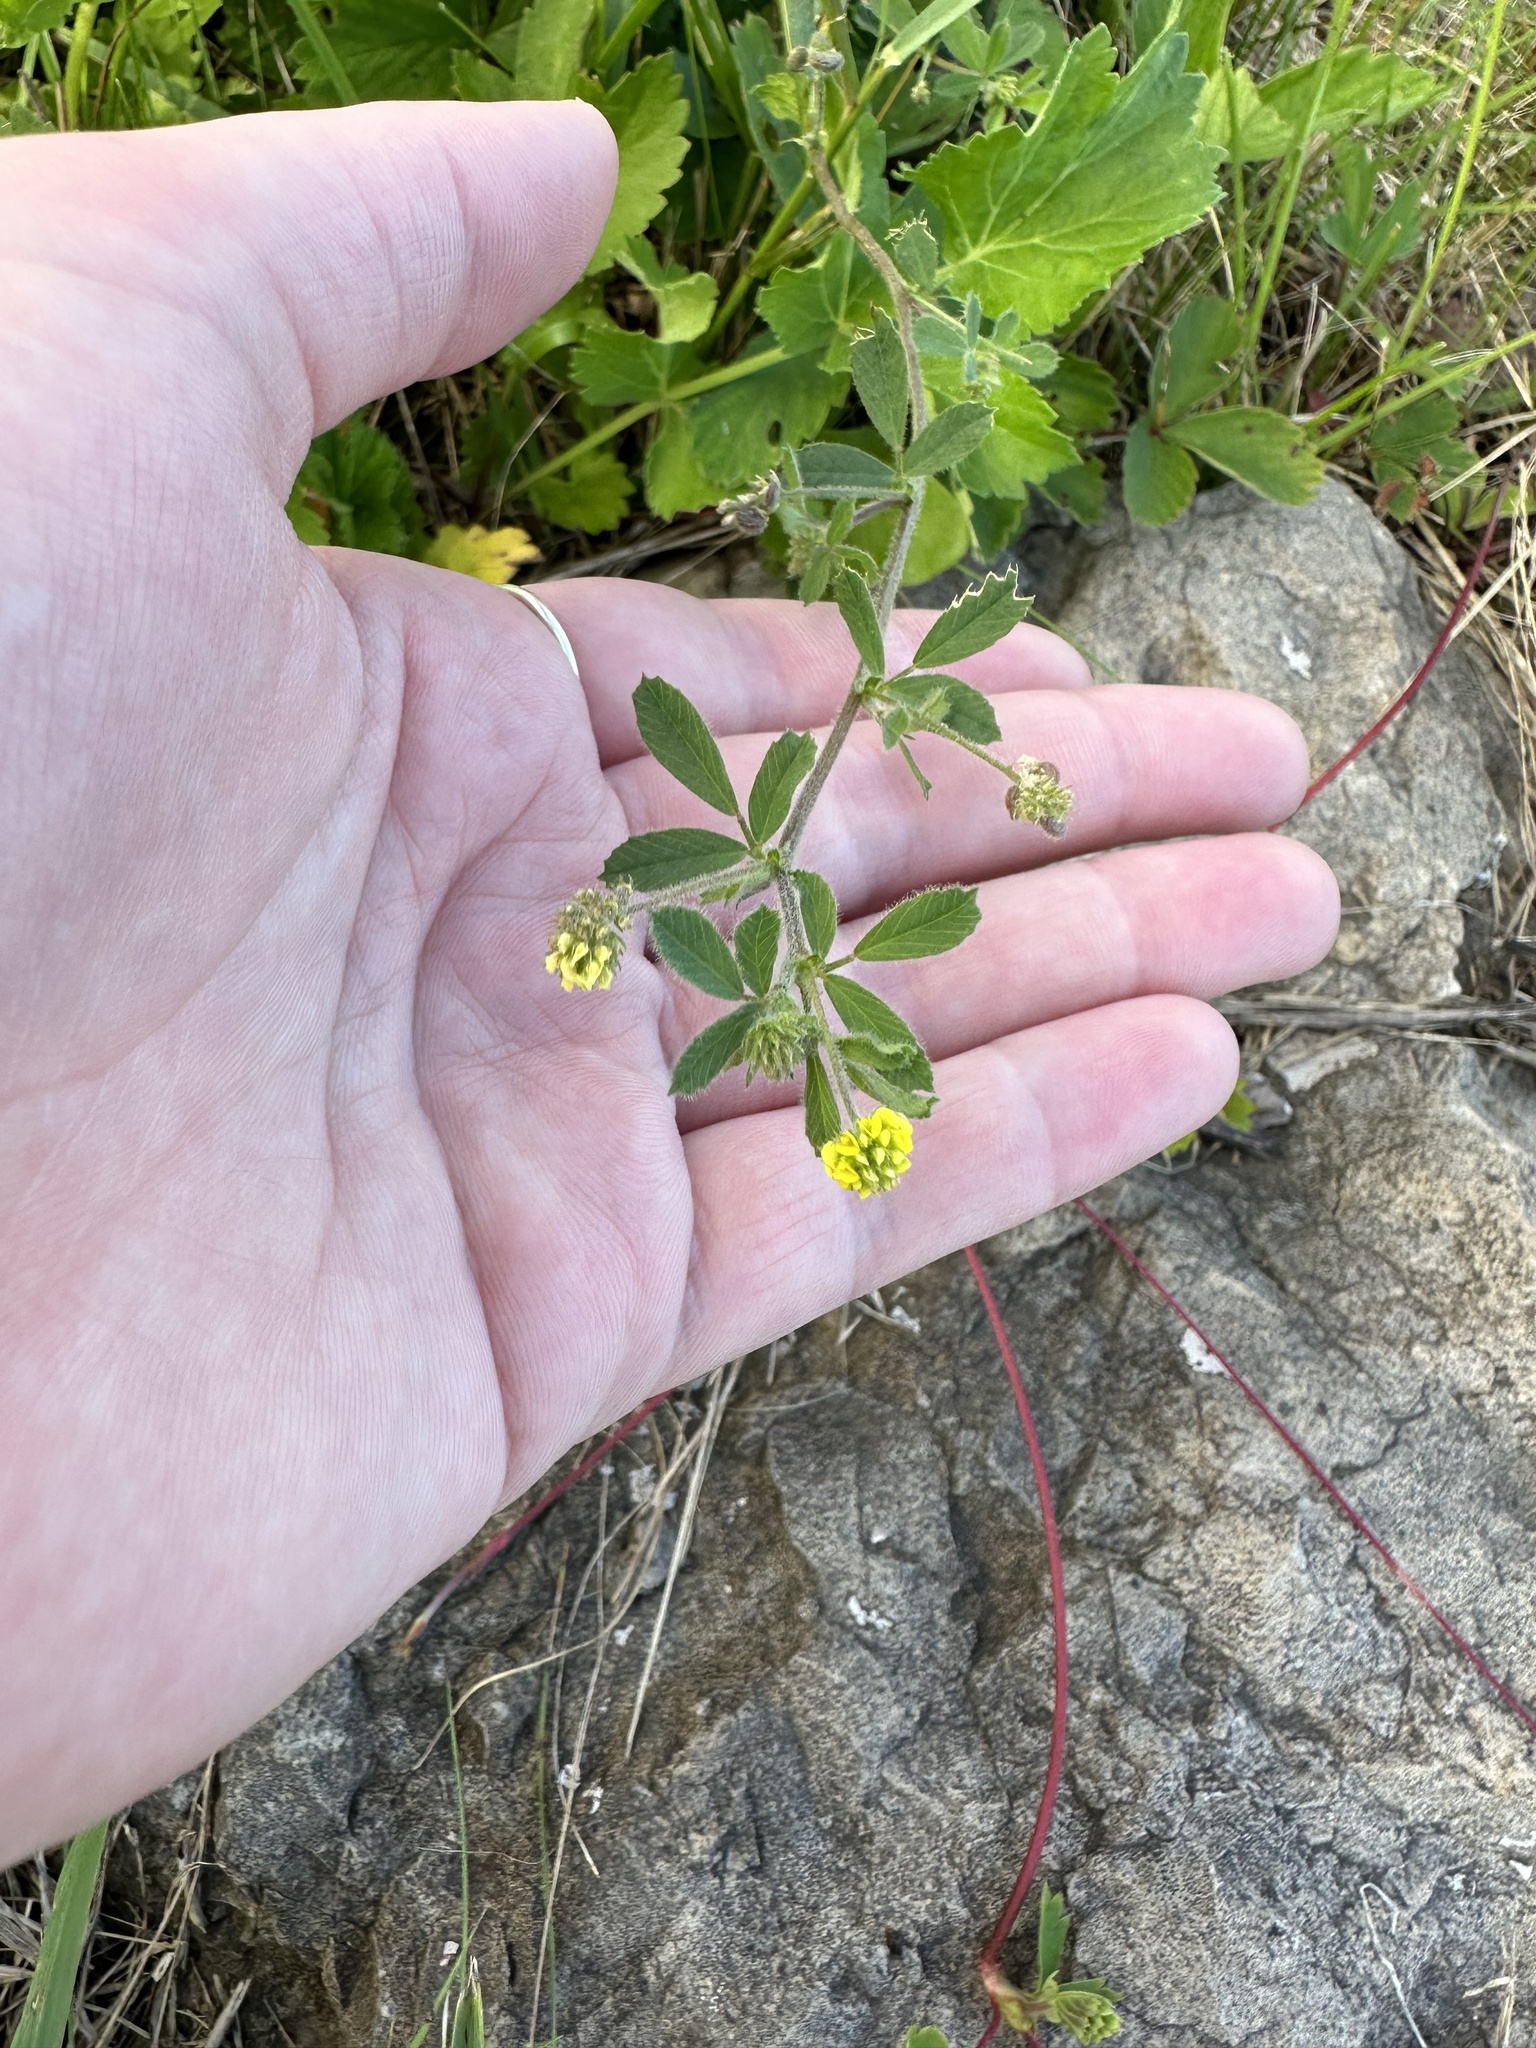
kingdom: Plantae
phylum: Tracheophyta
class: Magnoliopsida
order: Fabales
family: Fabaceae
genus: Medicago
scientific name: Medicago lupulina
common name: Black medick
